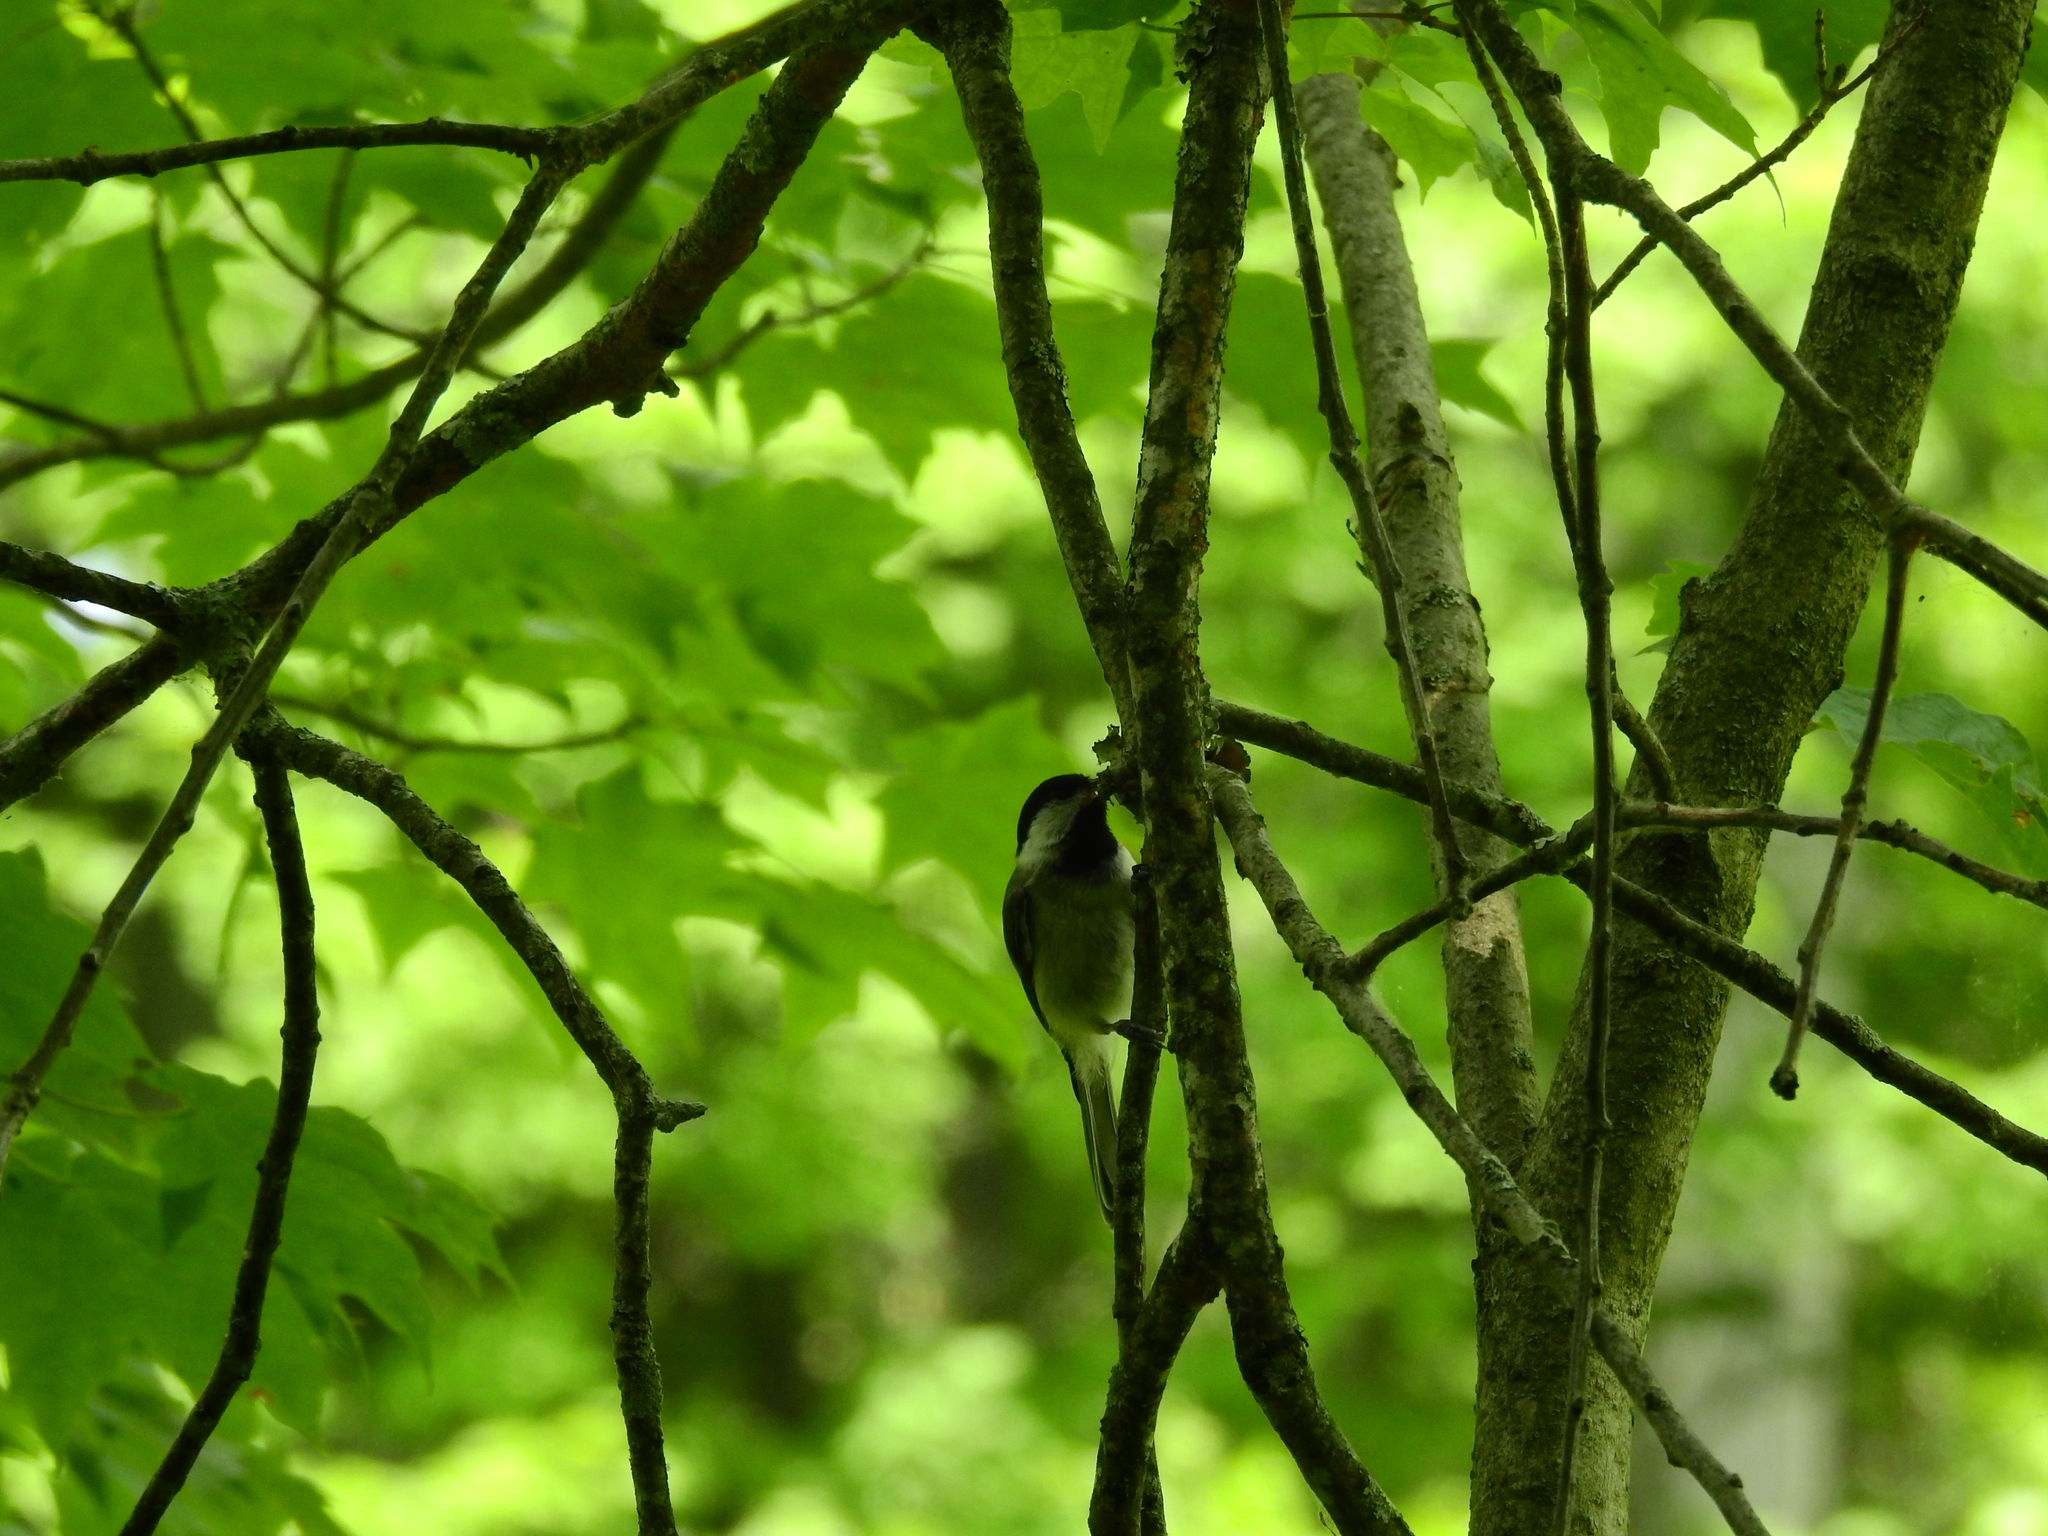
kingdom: Animalia
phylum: Chordata
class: Aves
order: Passeriformes
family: Paridae
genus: Poecile
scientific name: Poecile carolinensis
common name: Carolina chickadee
